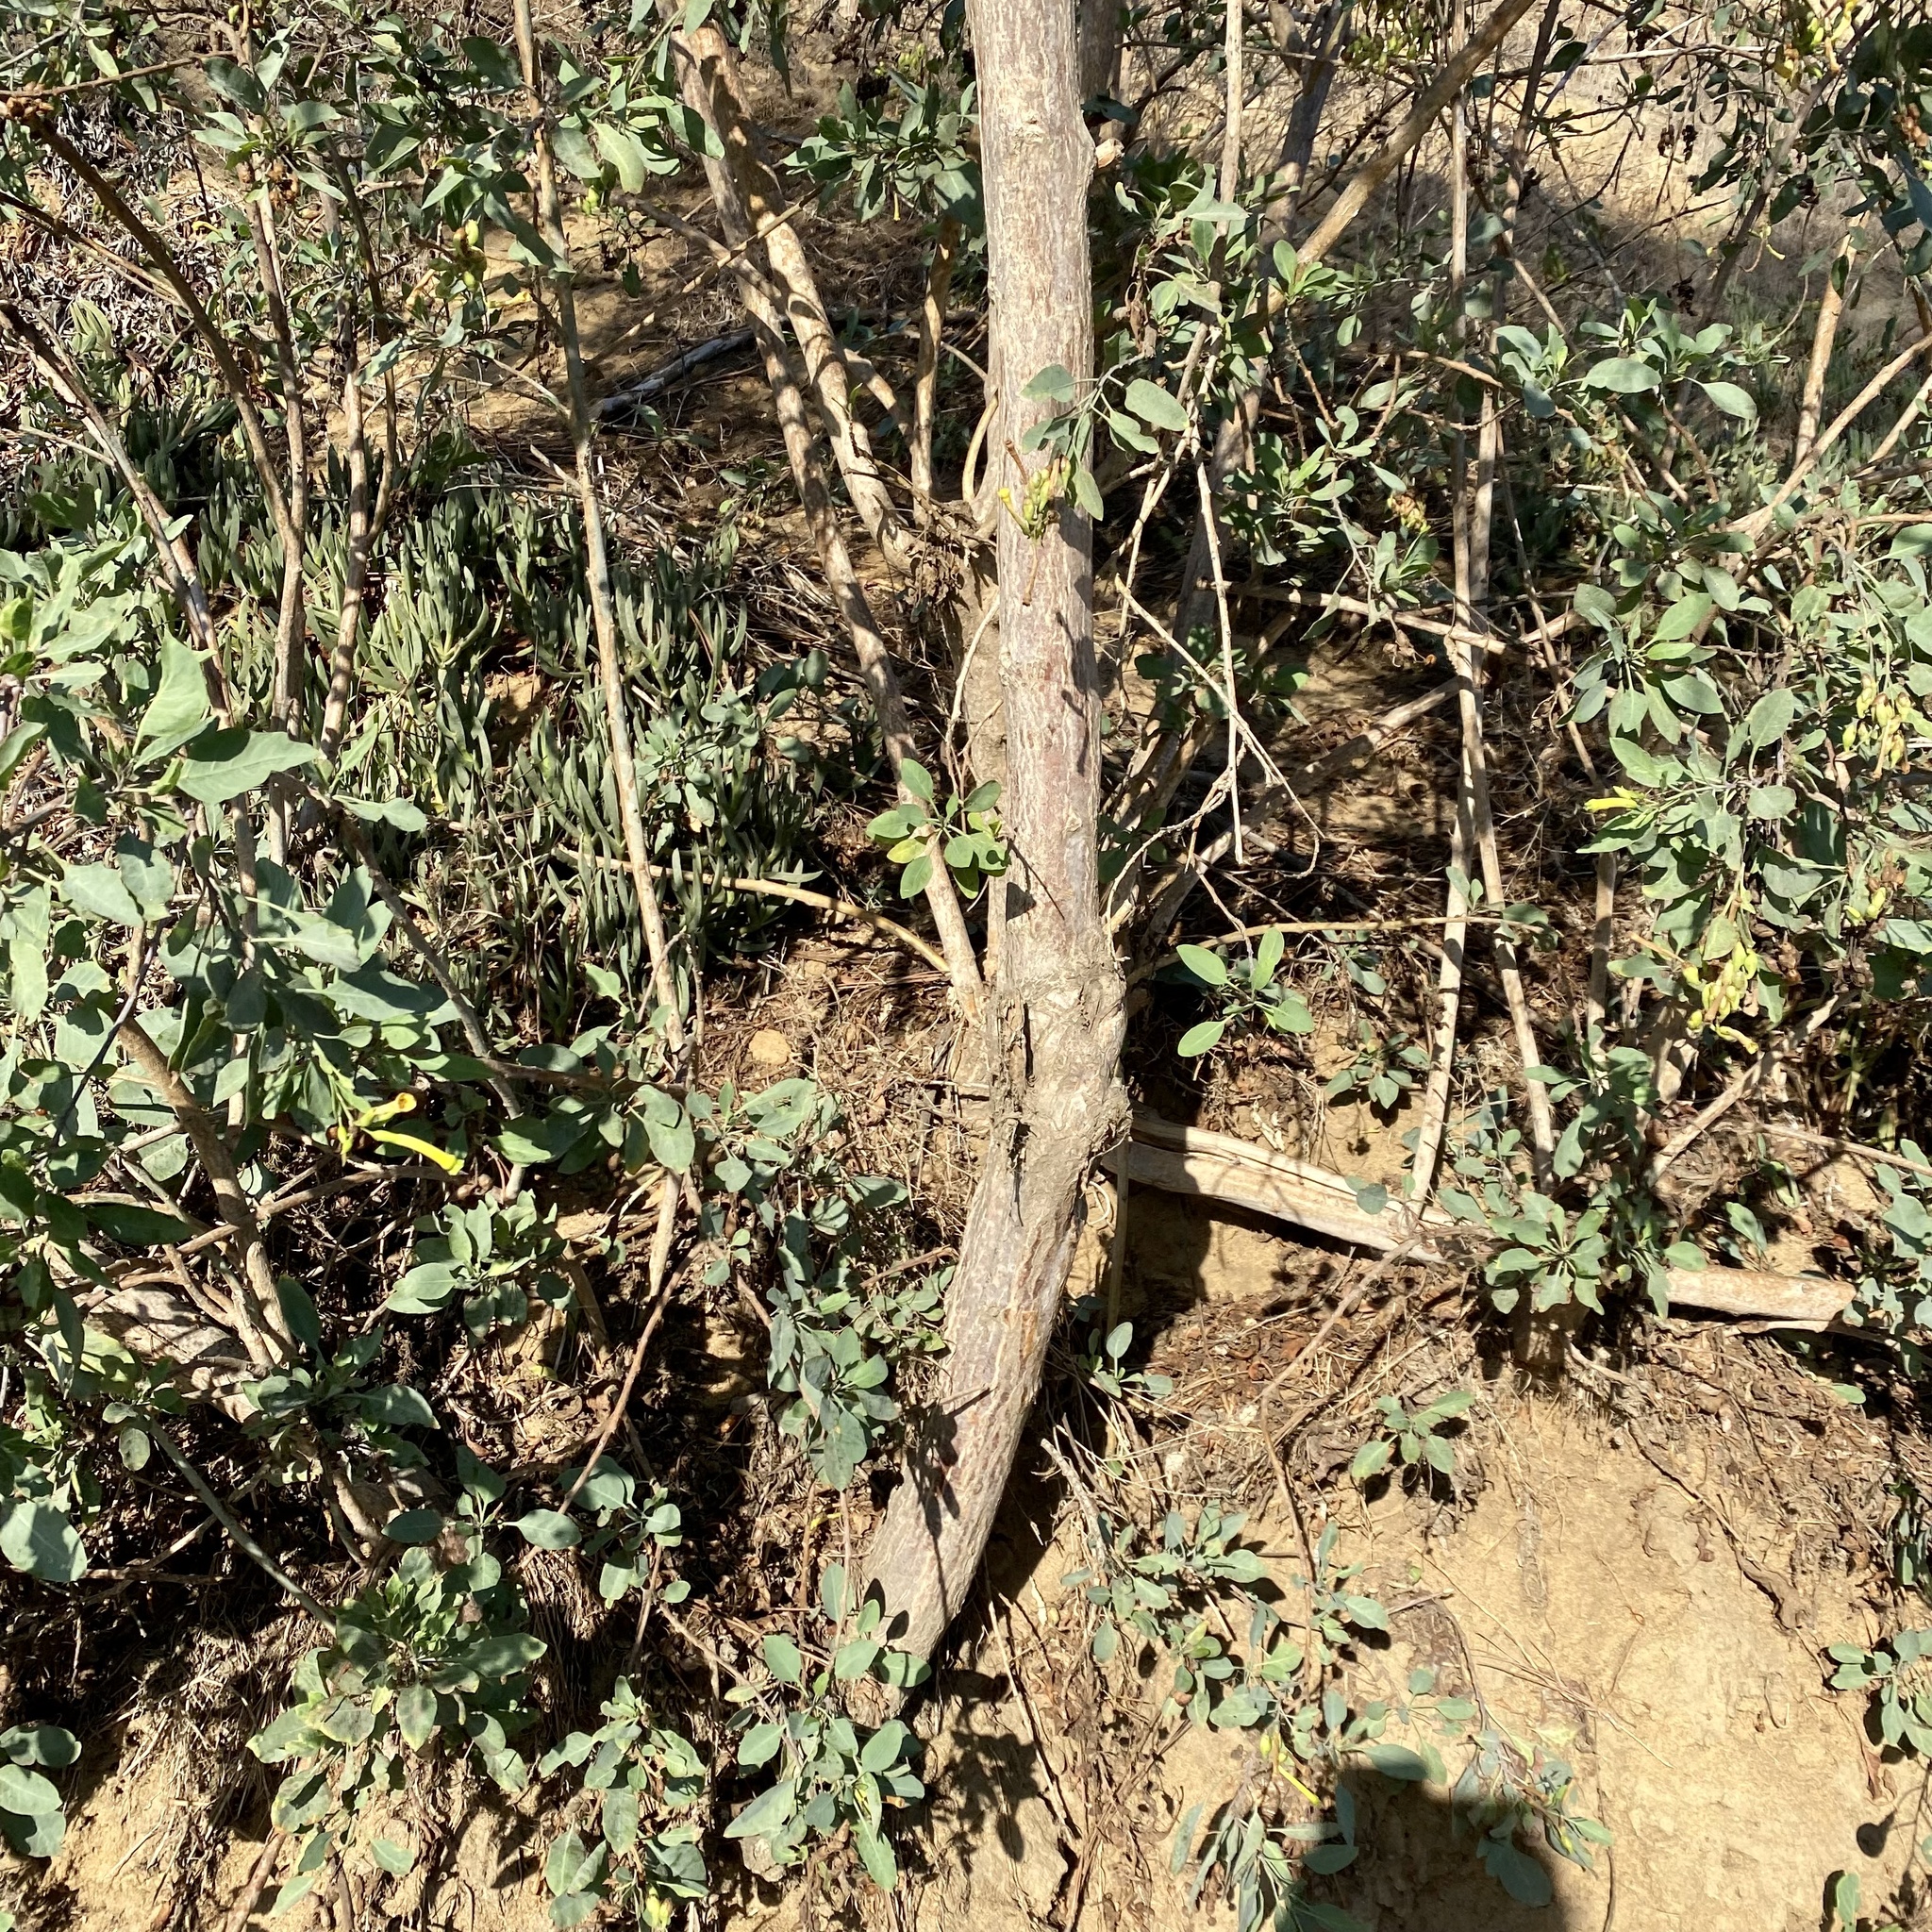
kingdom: Plantae
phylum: Tracheophyta
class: Magnoliopsida
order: Solanales
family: Solanaceae
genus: Nicotiana
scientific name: Nicotiana glauca
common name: Tree tobacco
